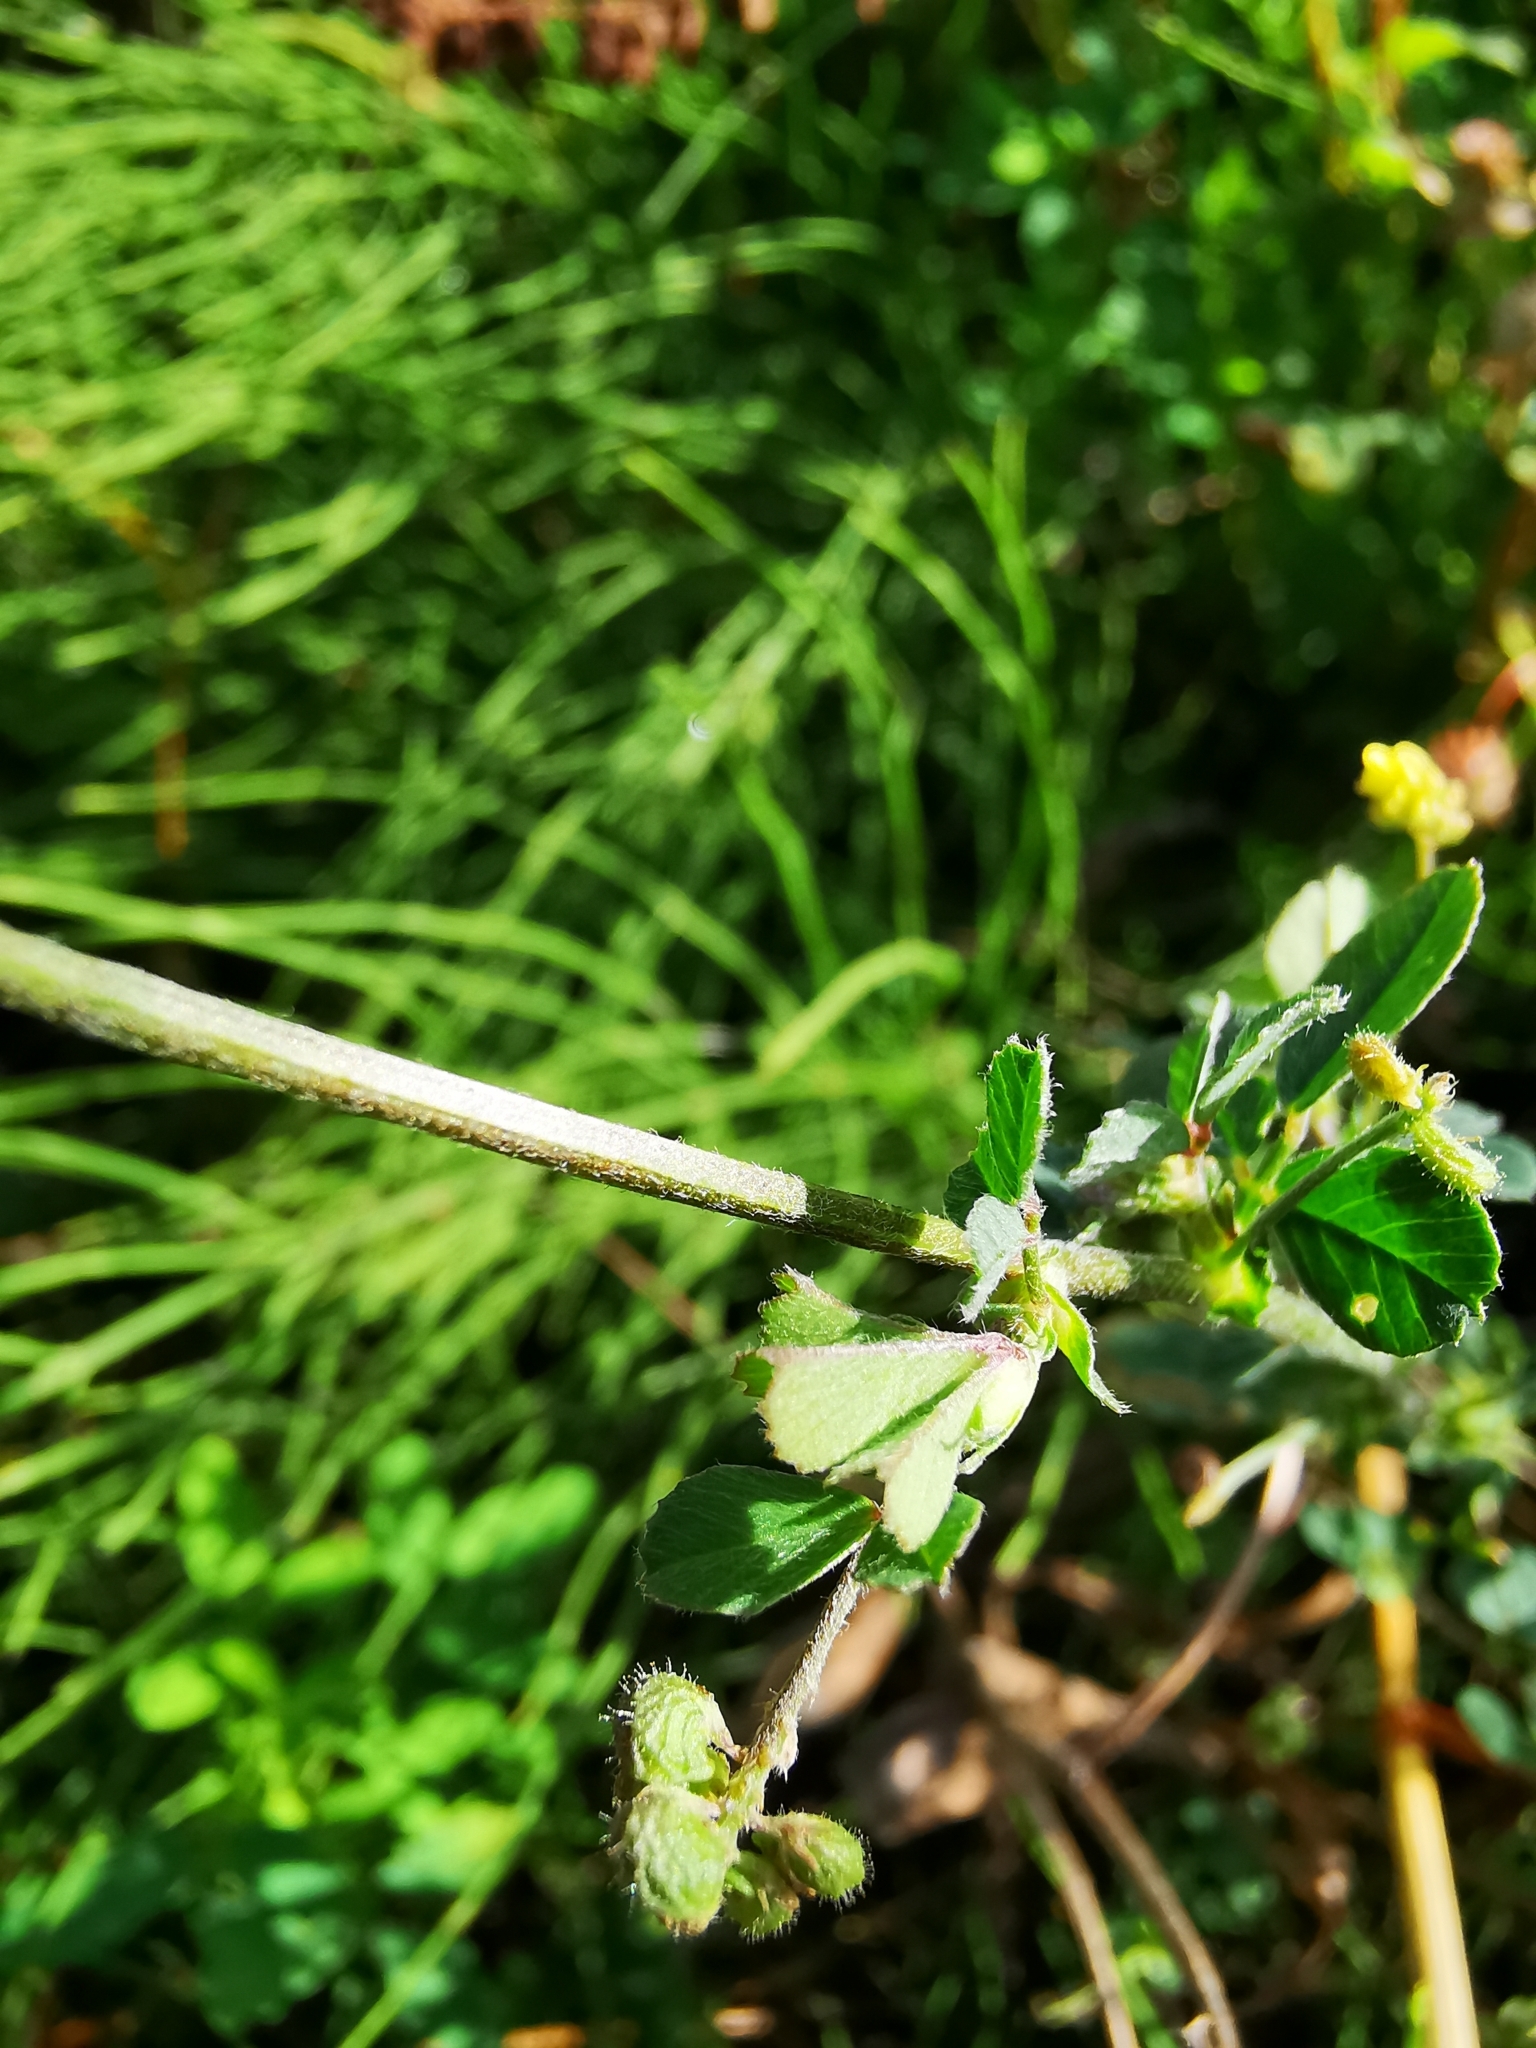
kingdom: Plantae
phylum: Tracheophyta
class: Magnoliopsida
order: Fabales
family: Fabaceae
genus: Medicago
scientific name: Medicago lupulina
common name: Black medick
